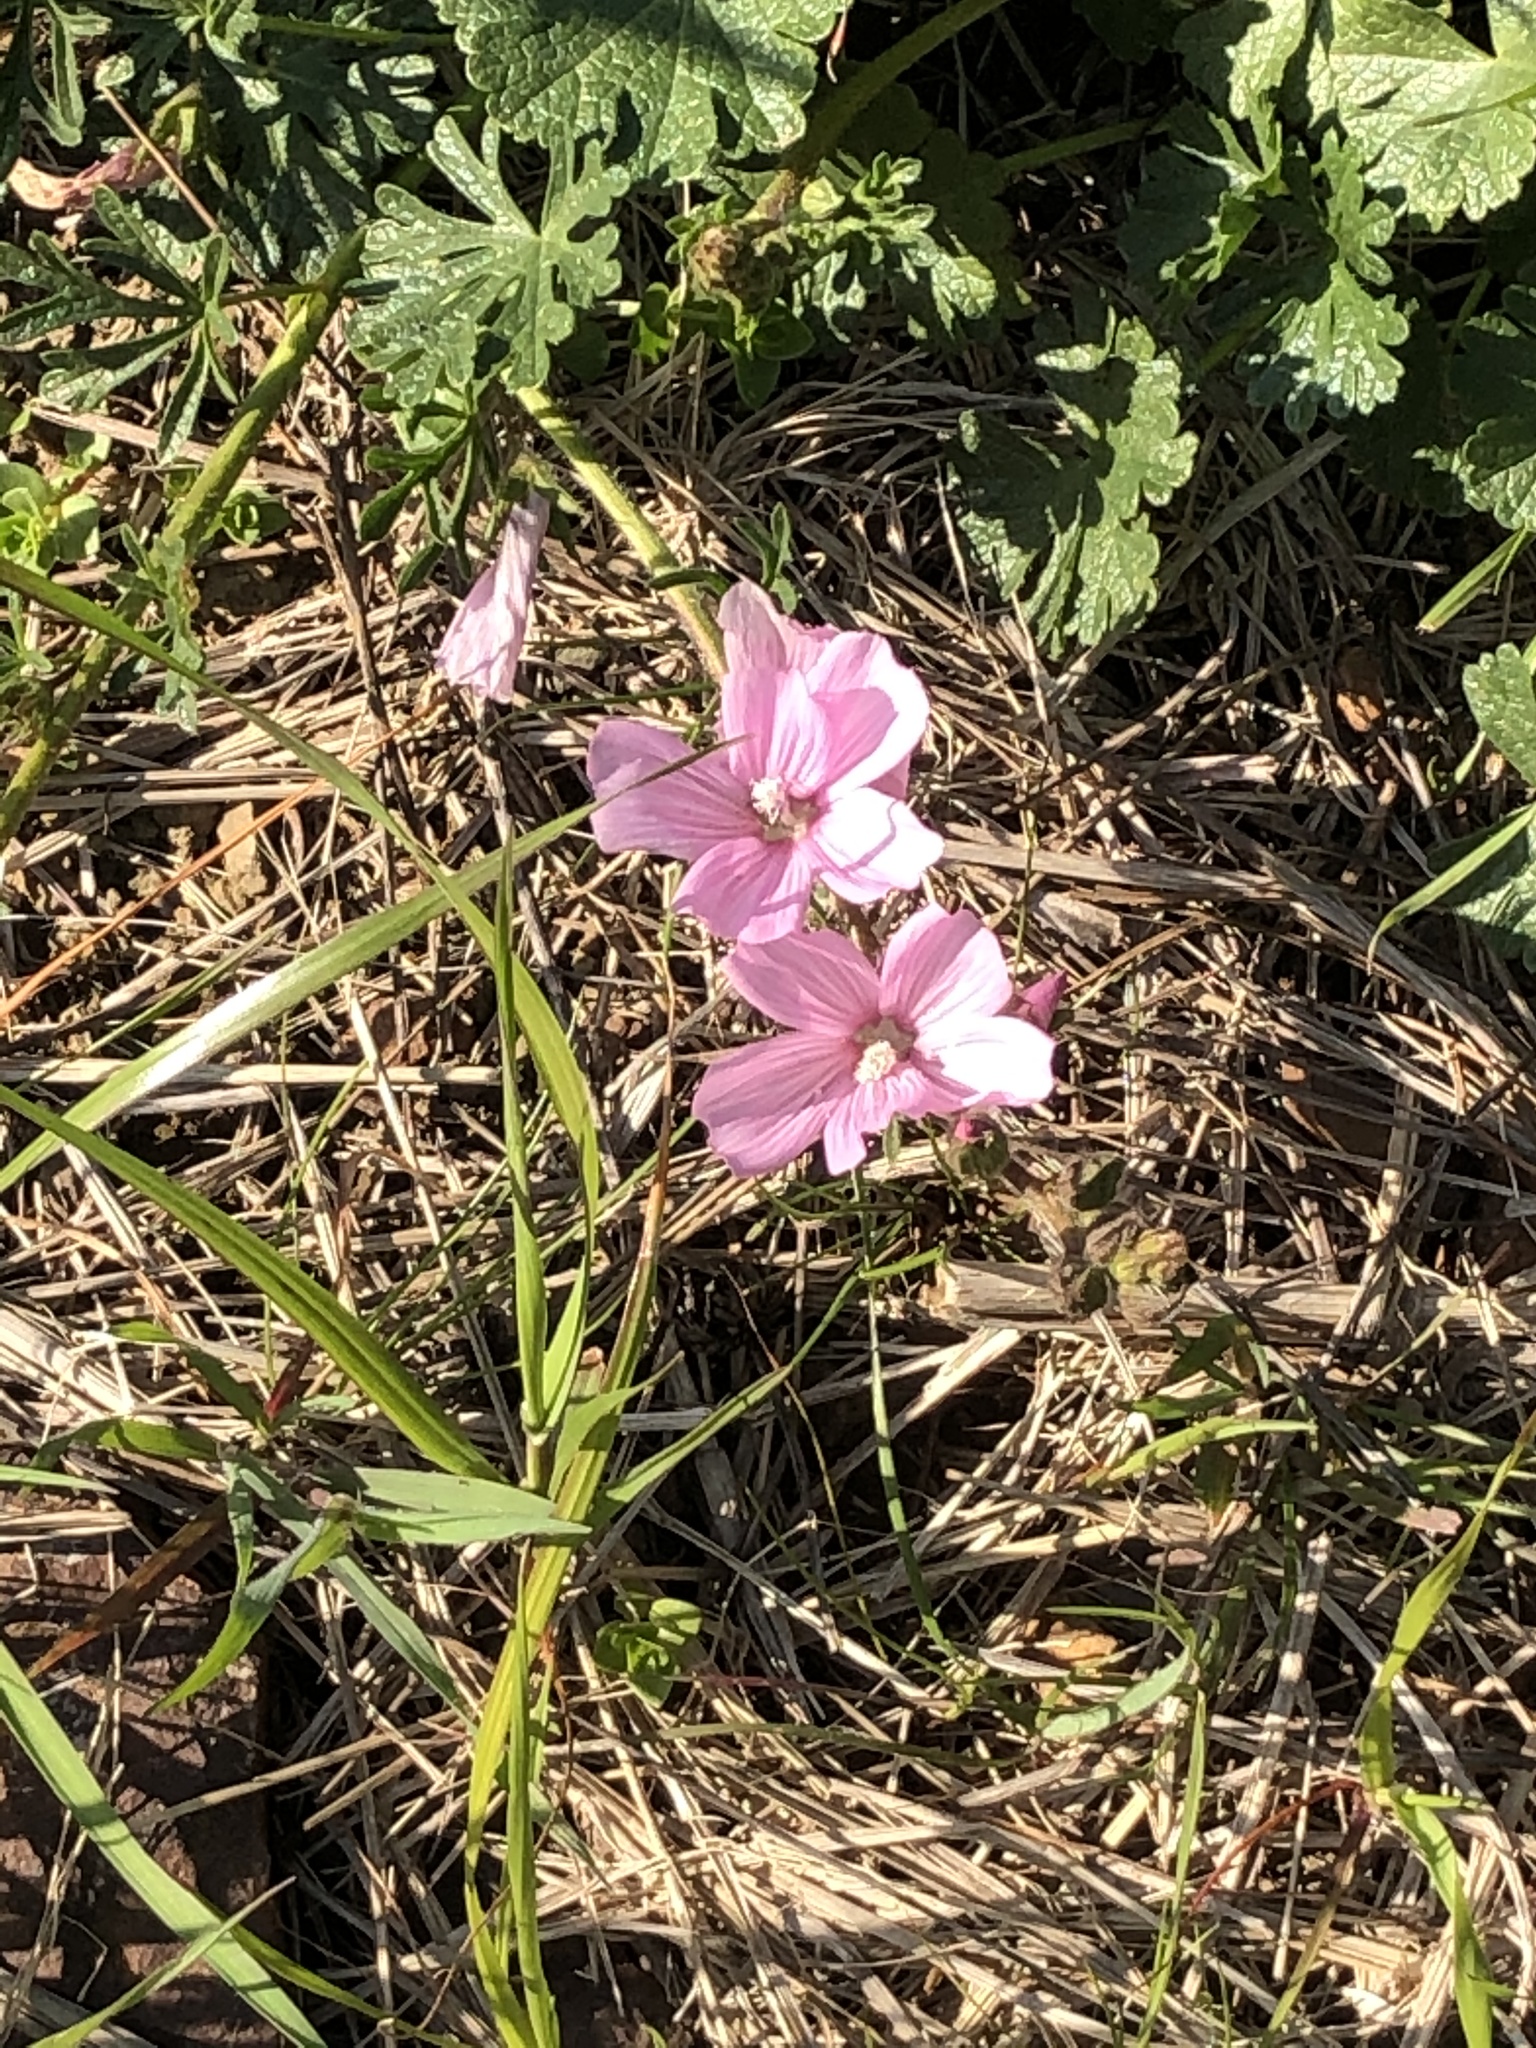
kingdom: Plantae
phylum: Tracheophyta
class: Magnoliopsida
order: Malvales
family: Malvaceae
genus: Sidalcea
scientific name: Sidalcea malviflora
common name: Greek mallow
